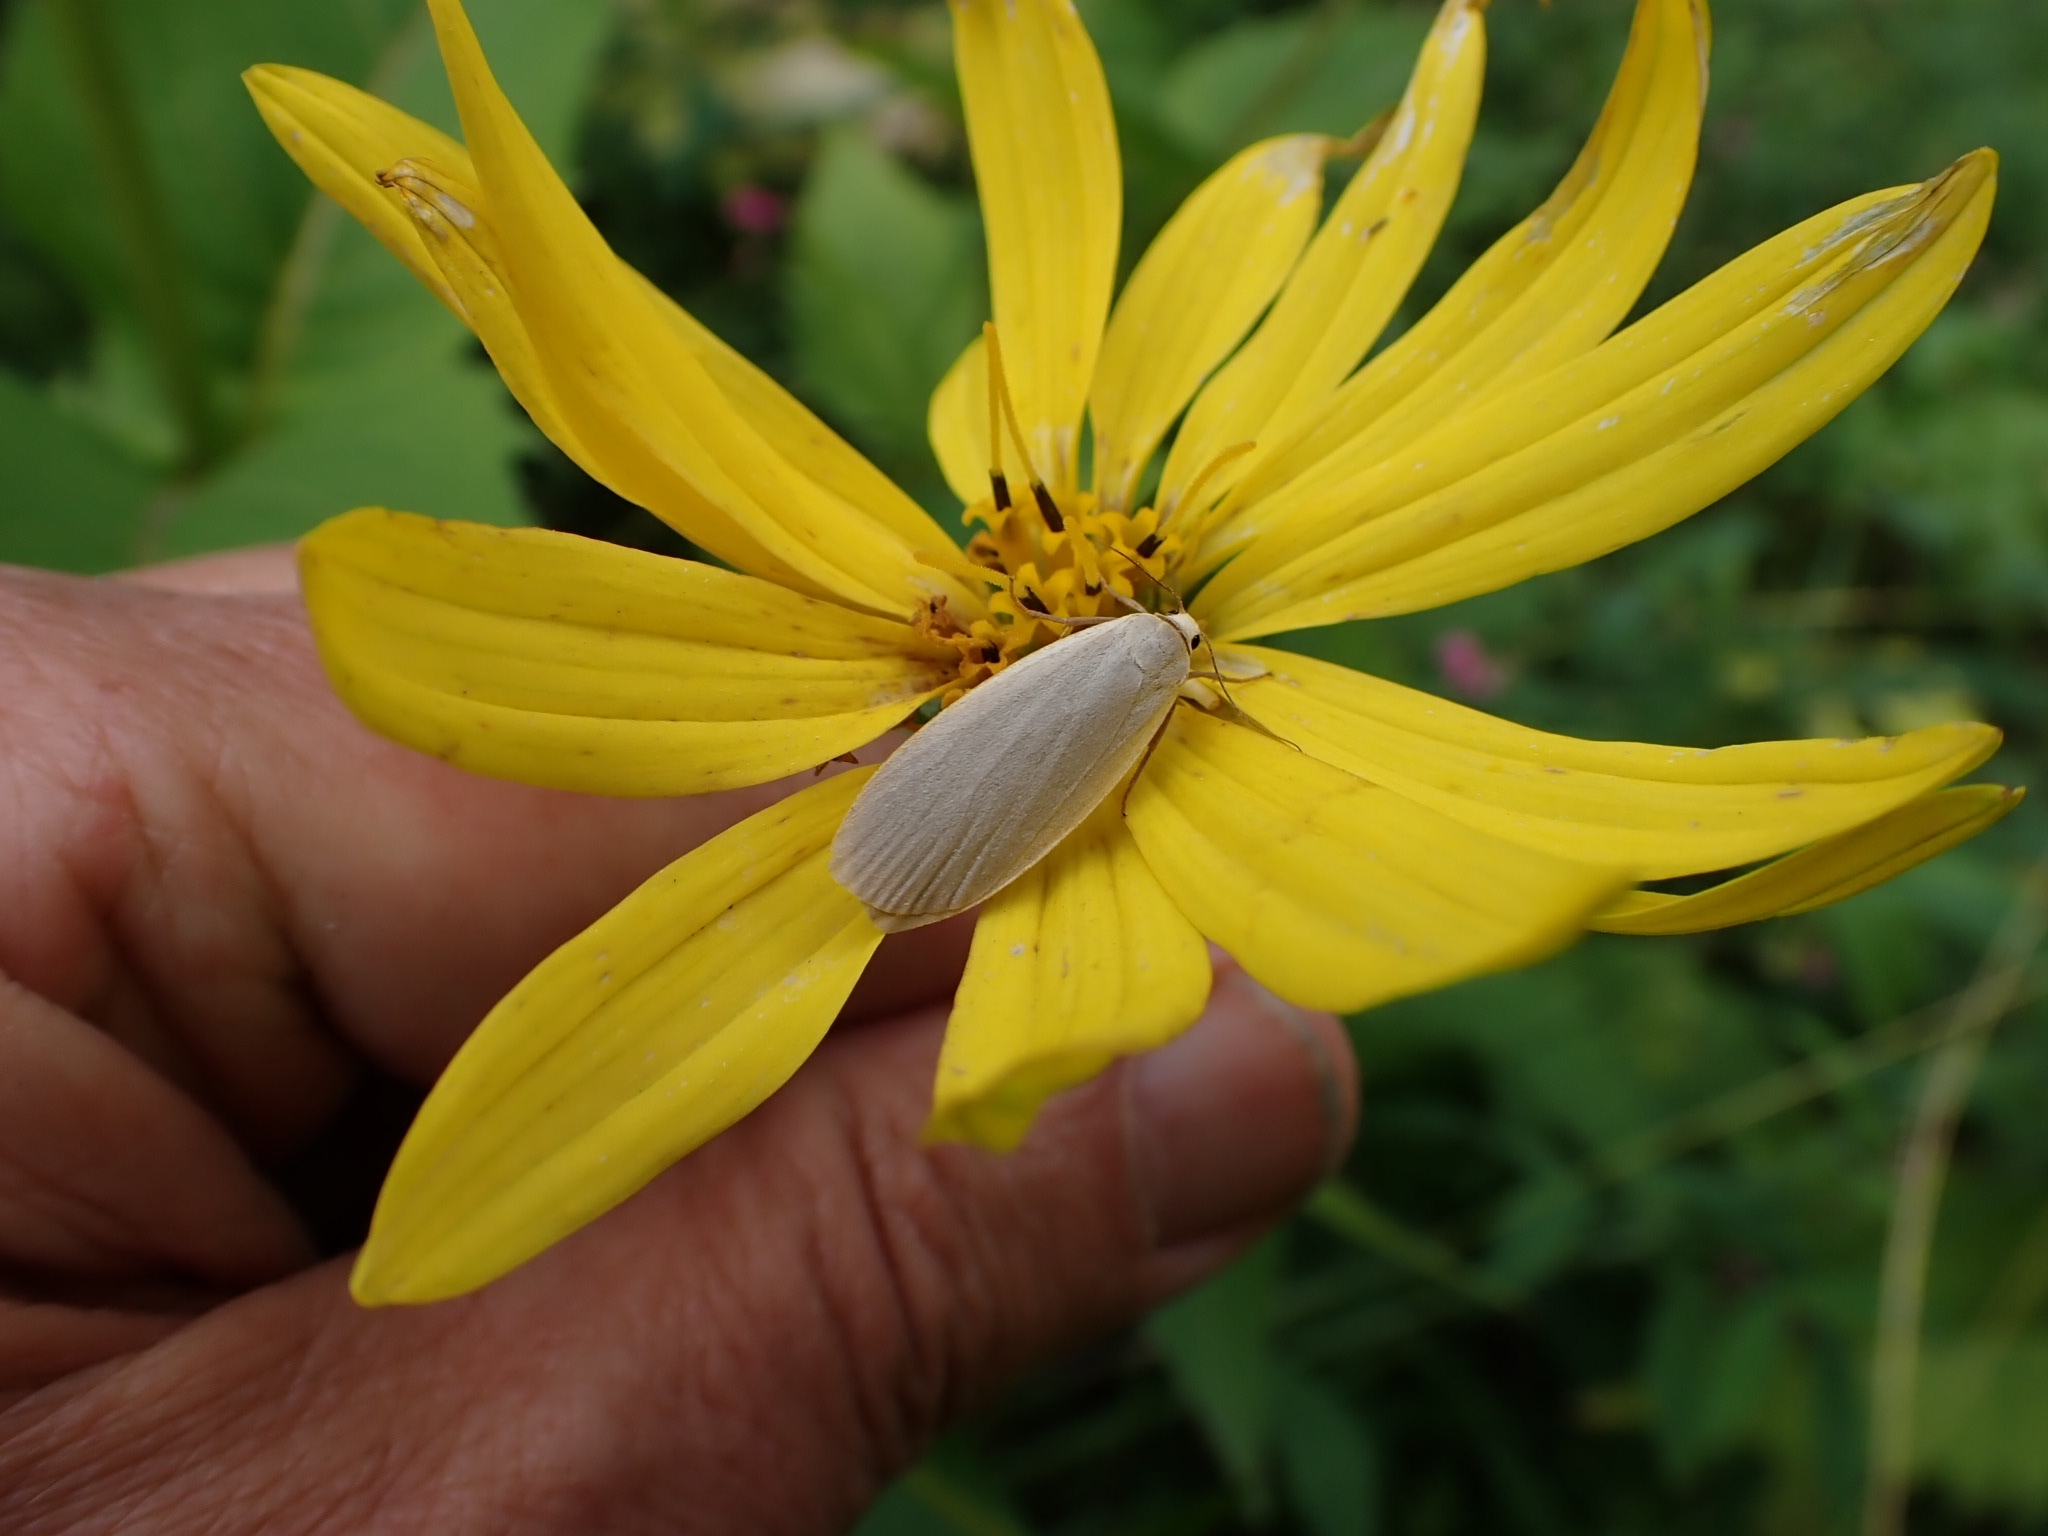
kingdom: Animalia
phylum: Arthropoda
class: Insecta
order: Lepidoptera
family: Erebidae
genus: Collita
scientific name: Collita griseola
